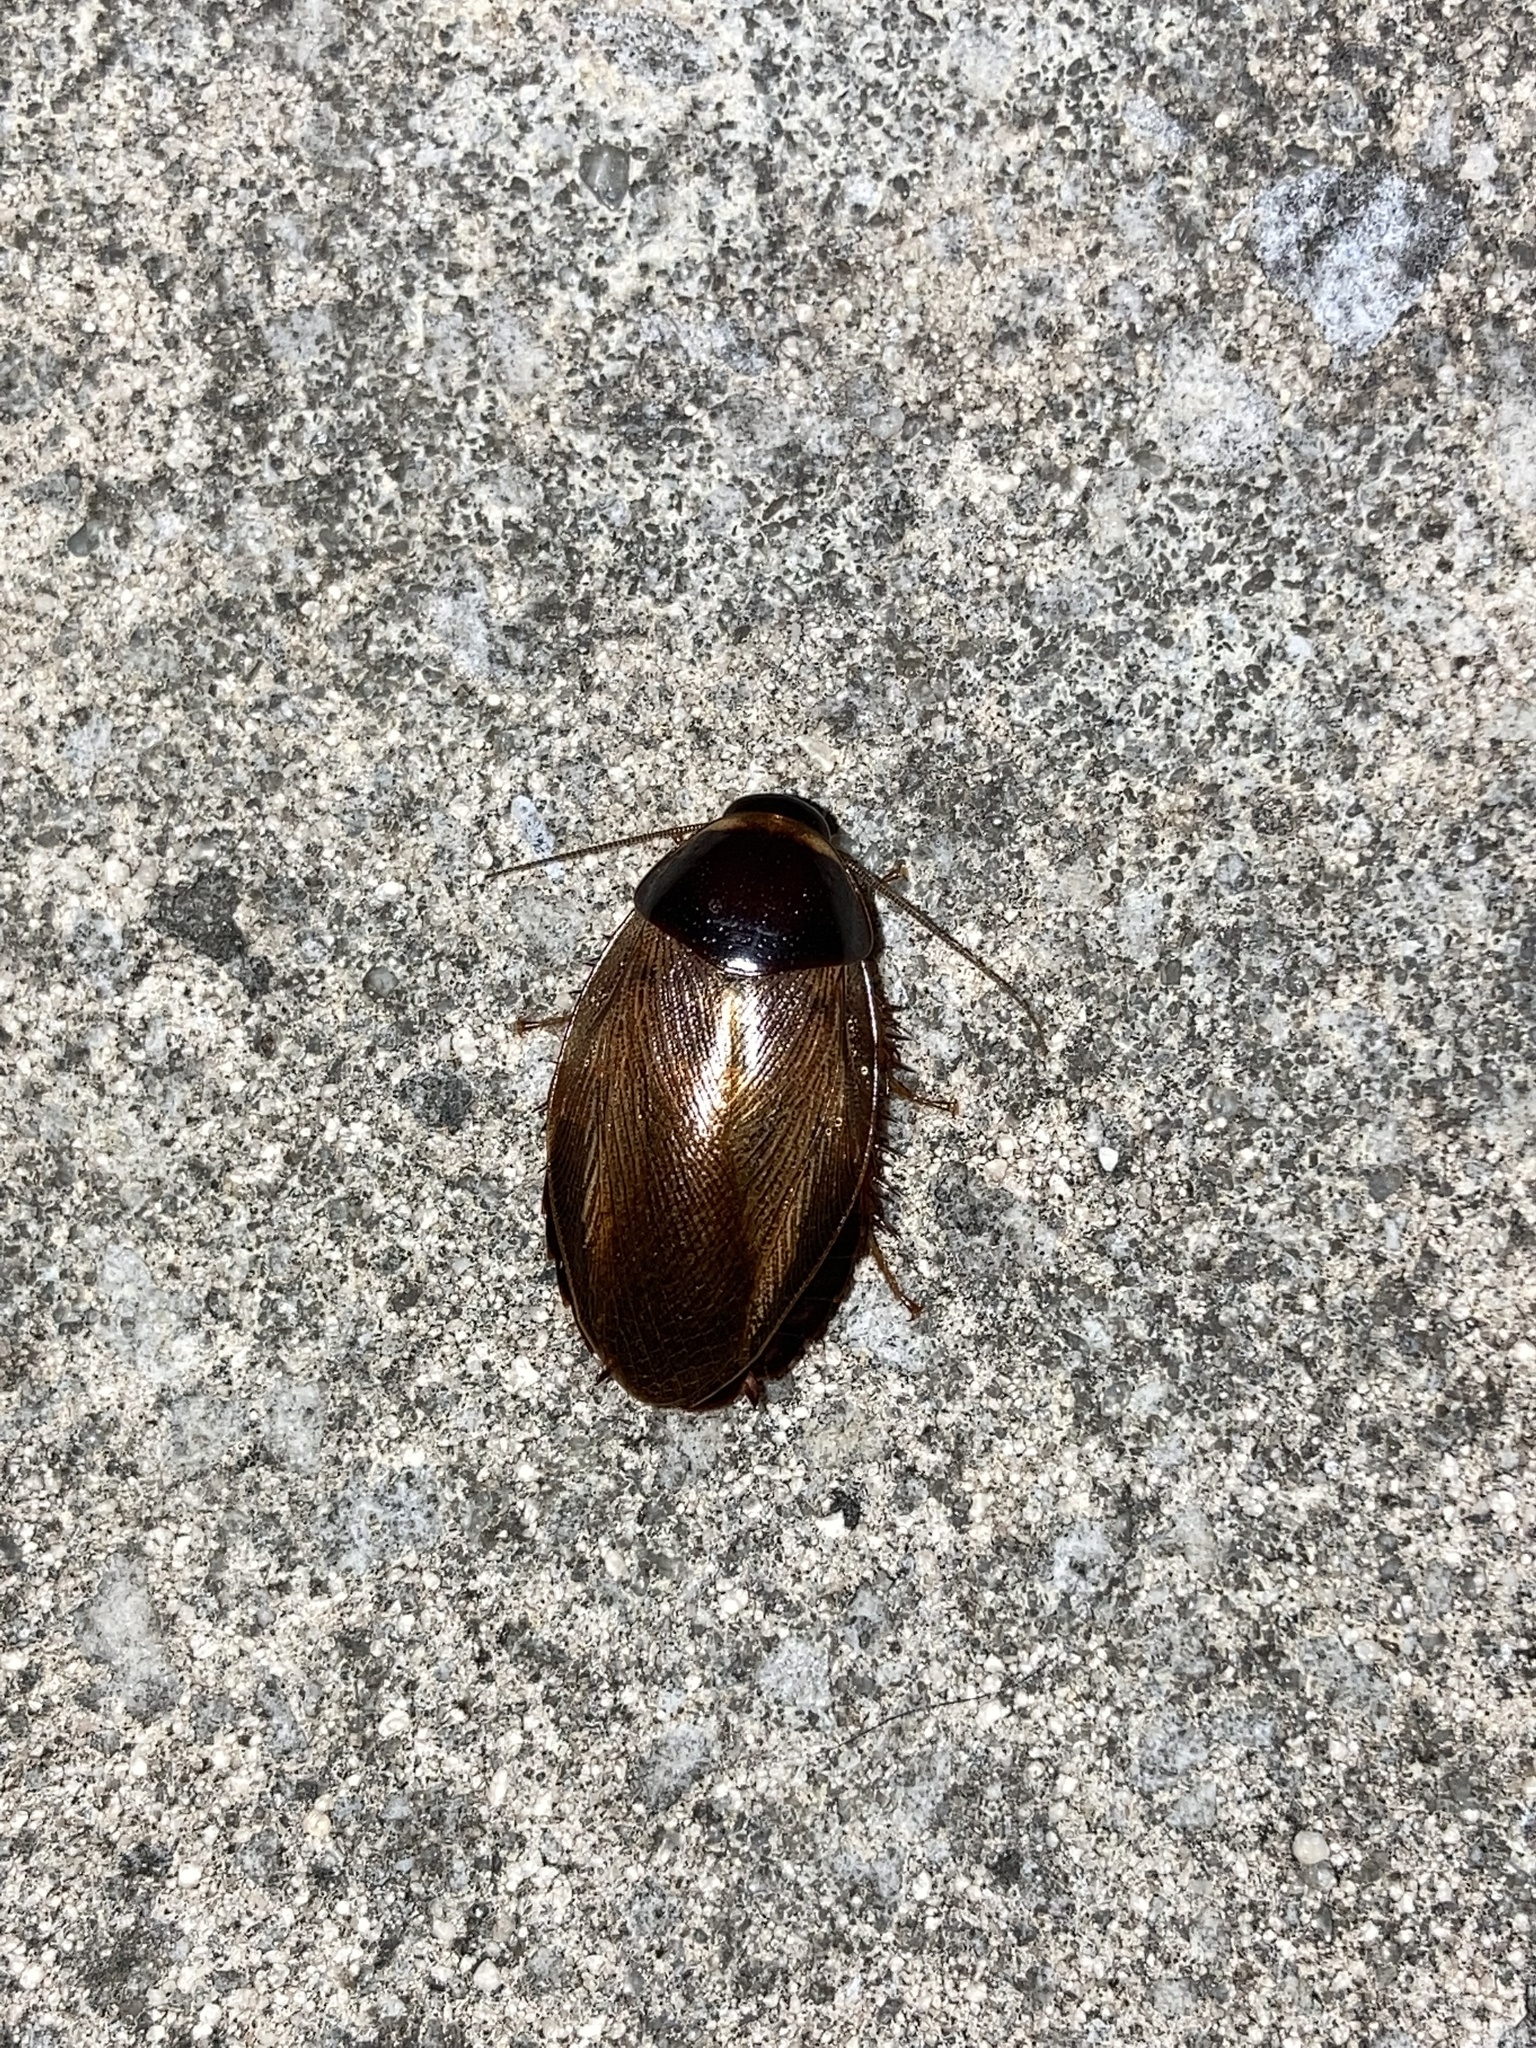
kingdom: Animalia
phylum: Arthropoda
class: Insecta
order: Blattodea
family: Blaberidae
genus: Pycnoscelus
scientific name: Pycnoscelus surinamensis
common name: Surinam cockroach
